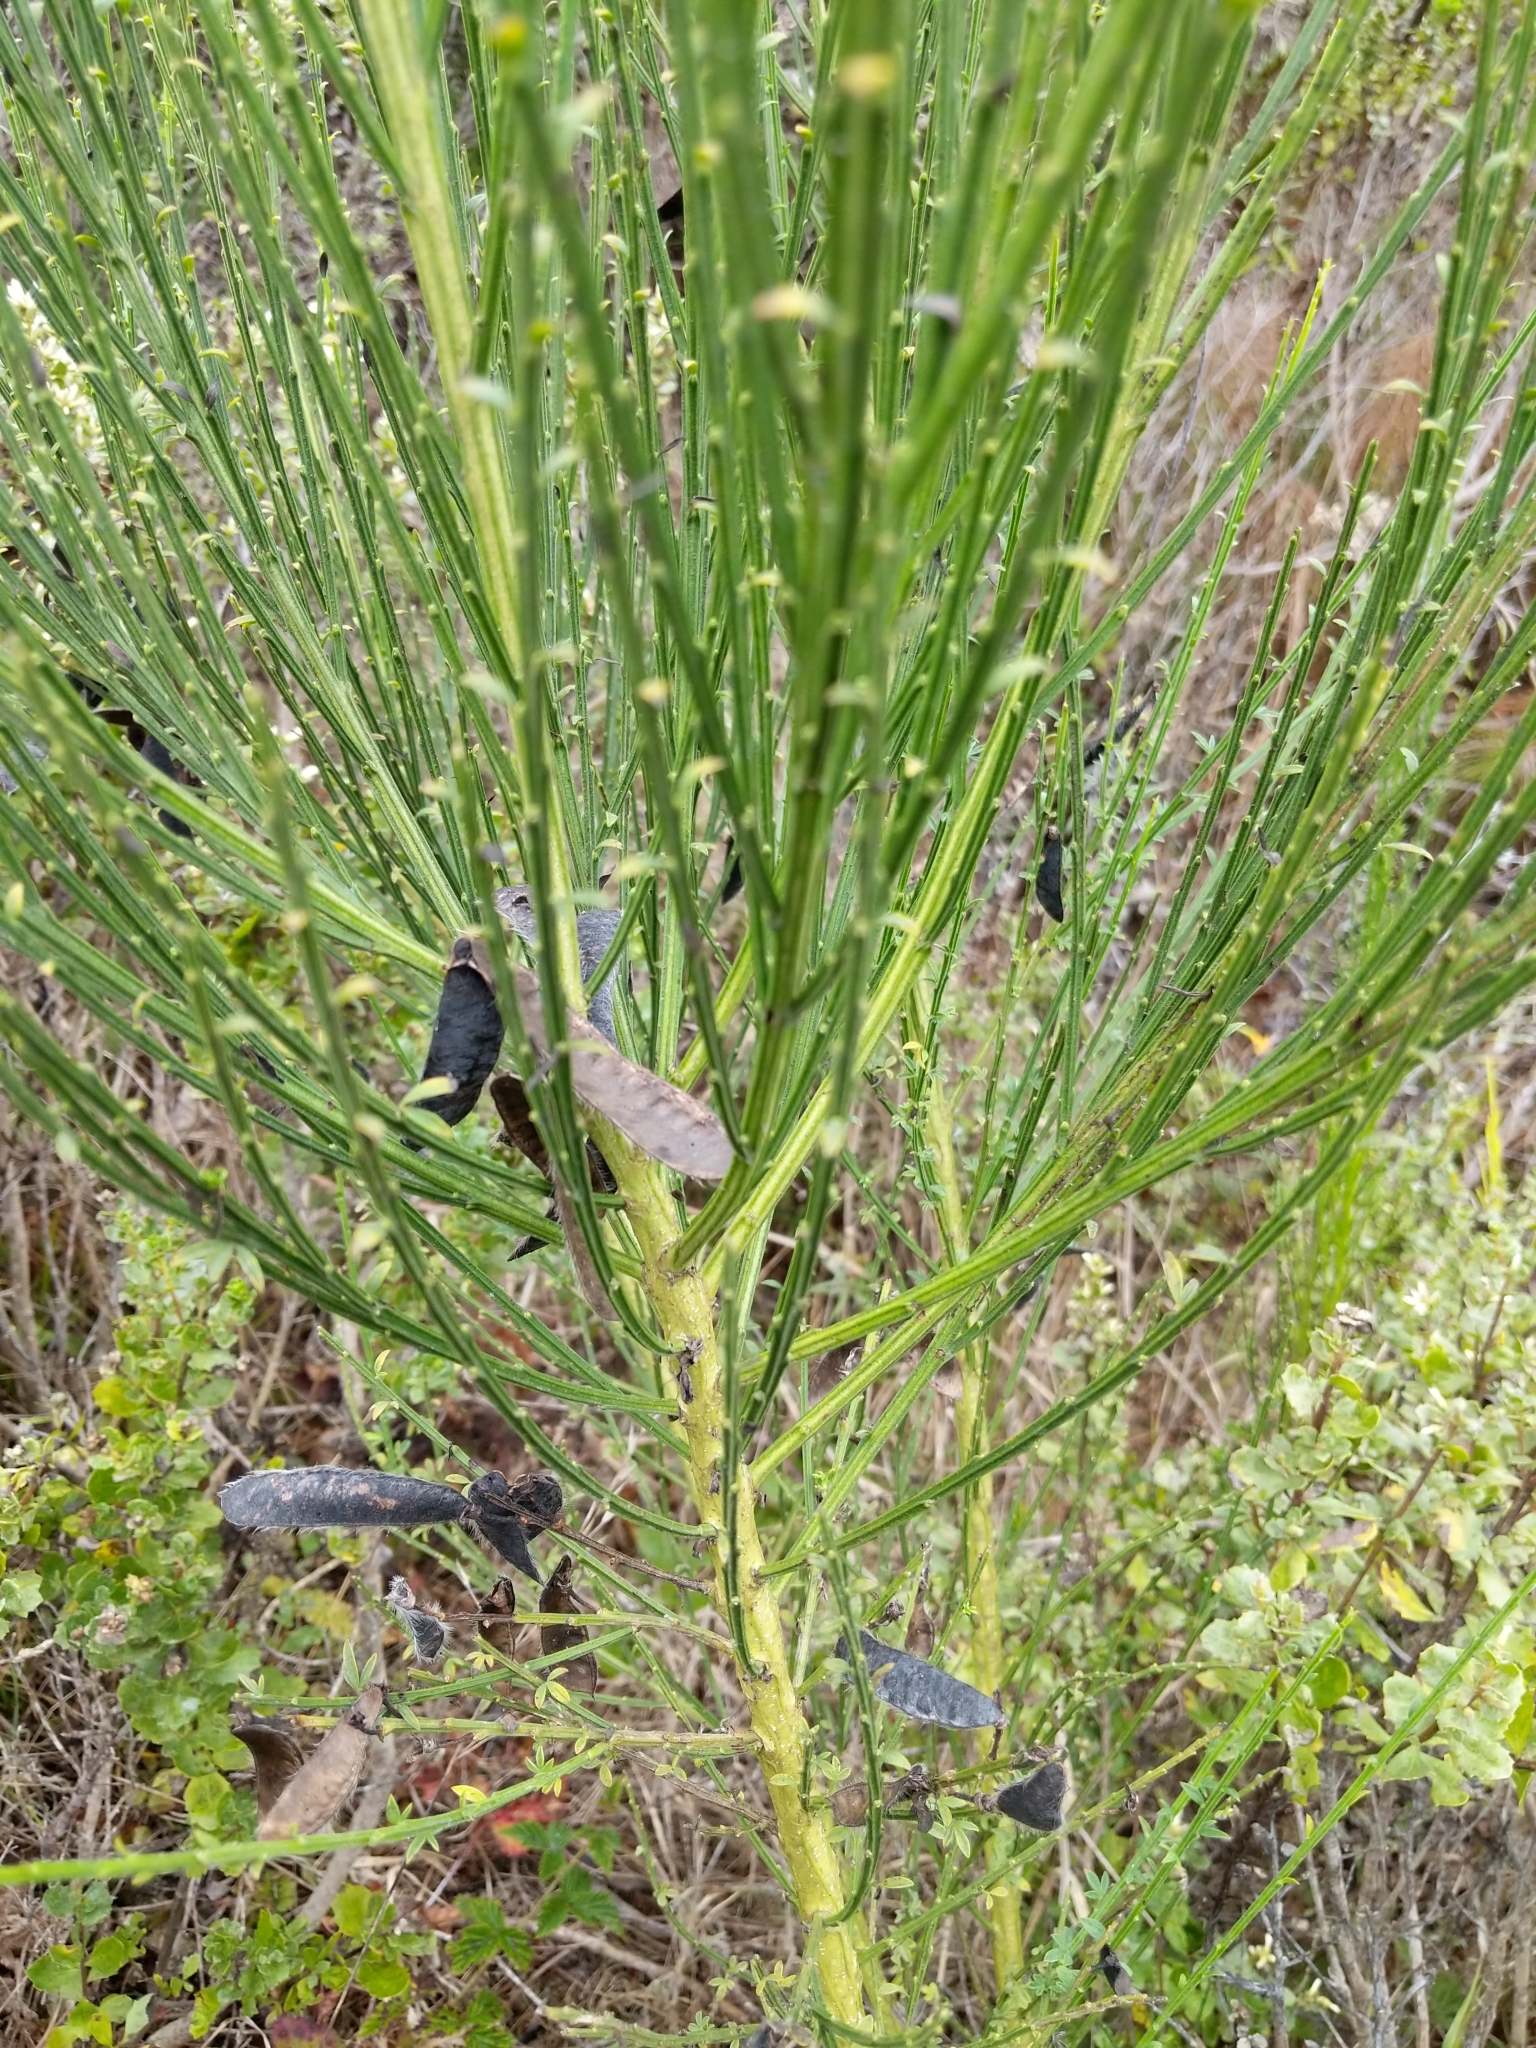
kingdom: Plantae
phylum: Tracheophyta
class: Magnoliopsida
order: Fabales
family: Fabaceae
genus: Cytisus
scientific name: Cytisus scoparius
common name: Scotch broom
